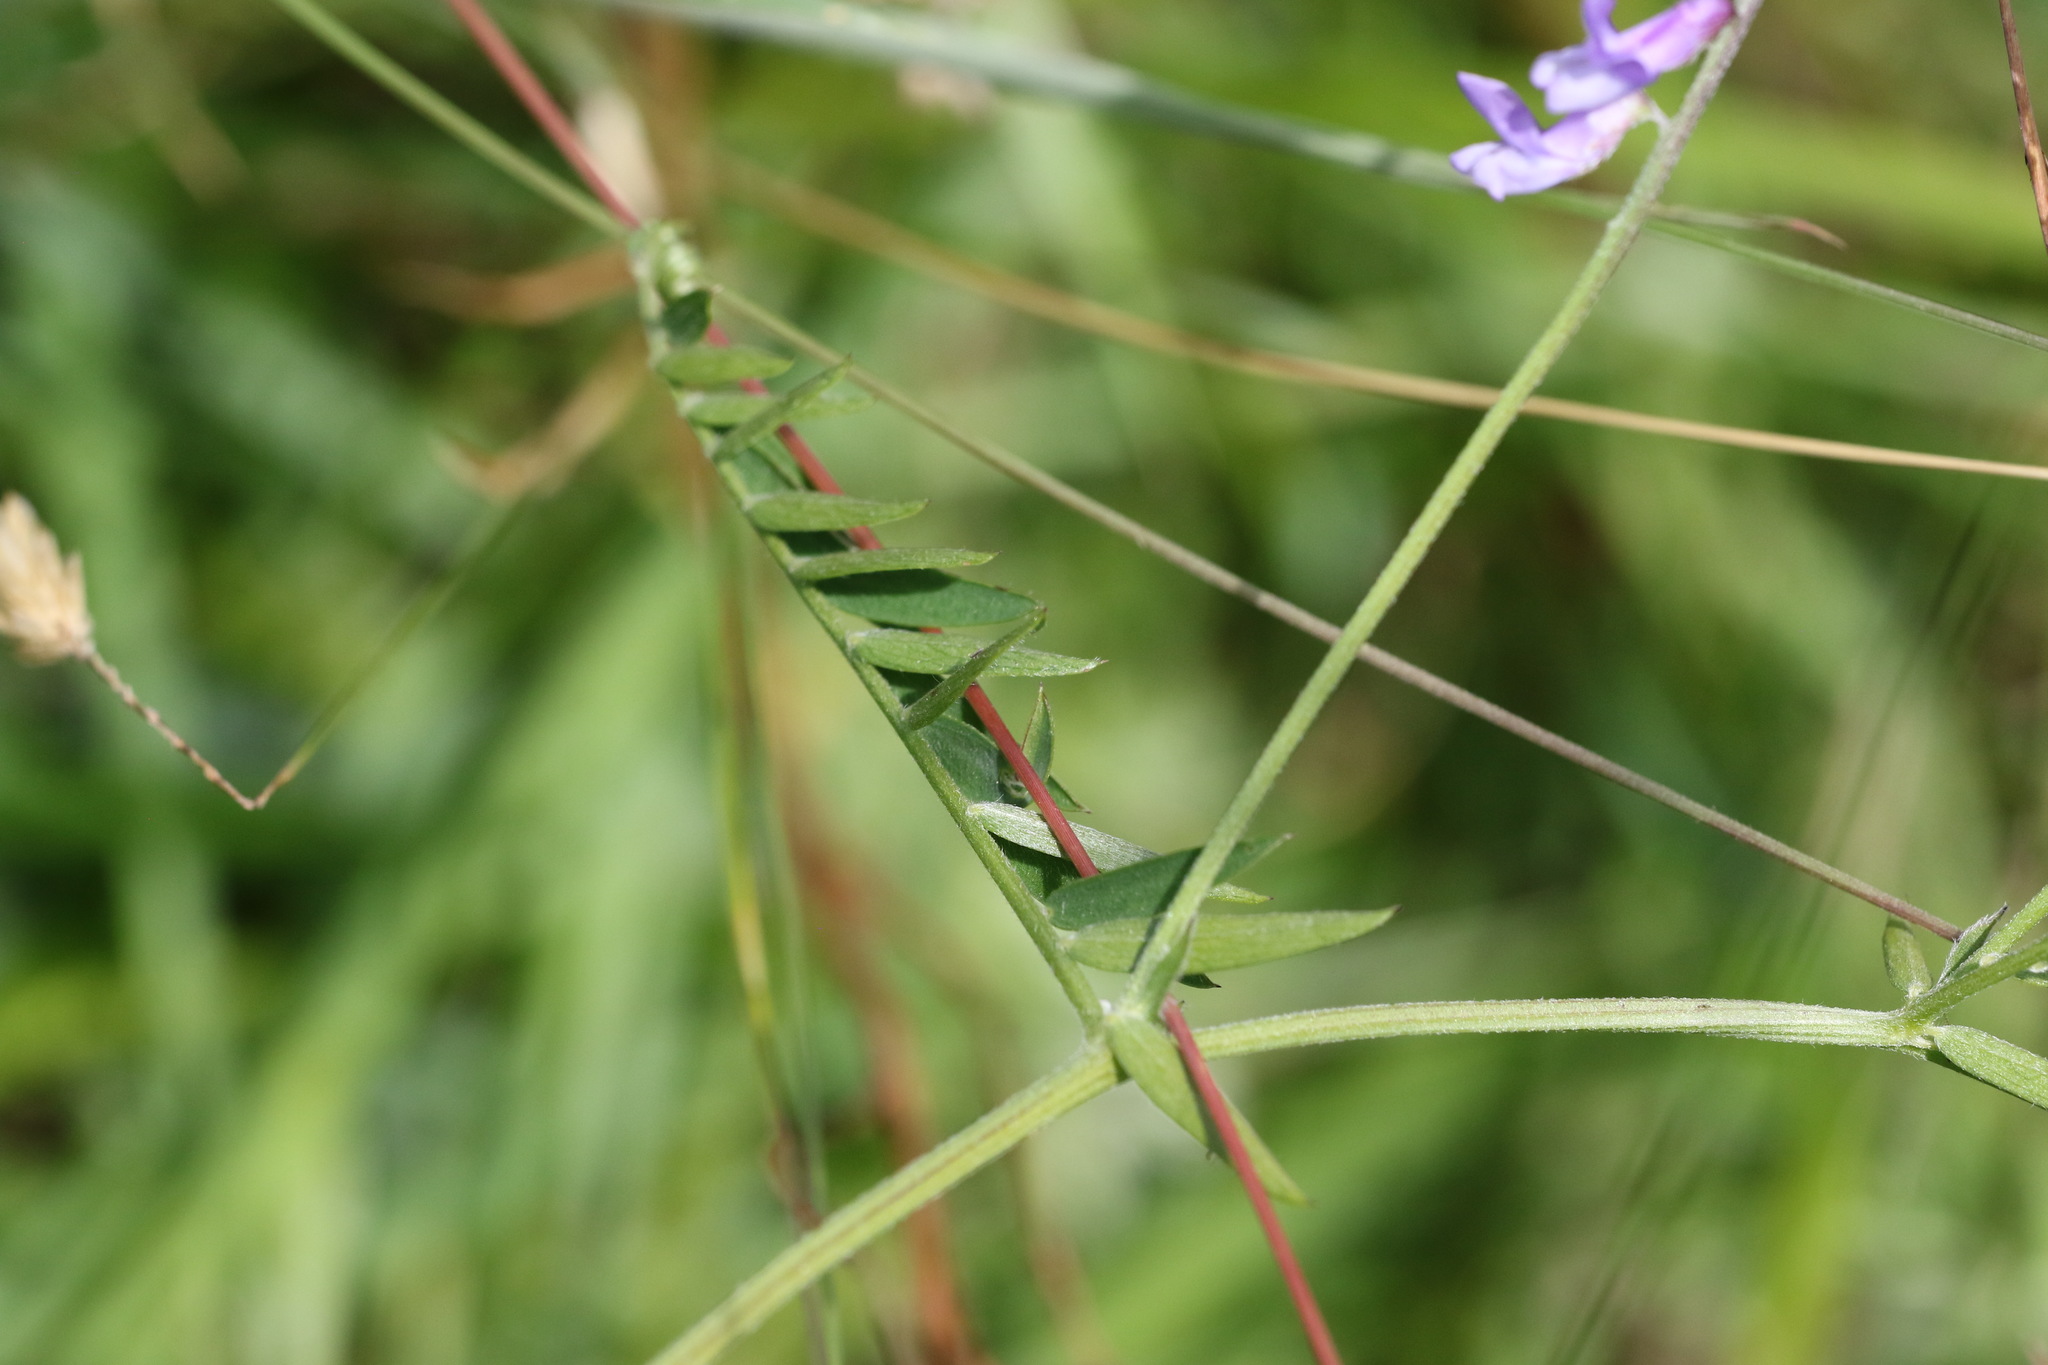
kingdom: Plantae
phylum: Tracheophyta
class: Magnoliopsida
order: Fabales
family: Fabaceae
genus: Vicia
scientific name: Vicia cracca
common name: Bird vetch
